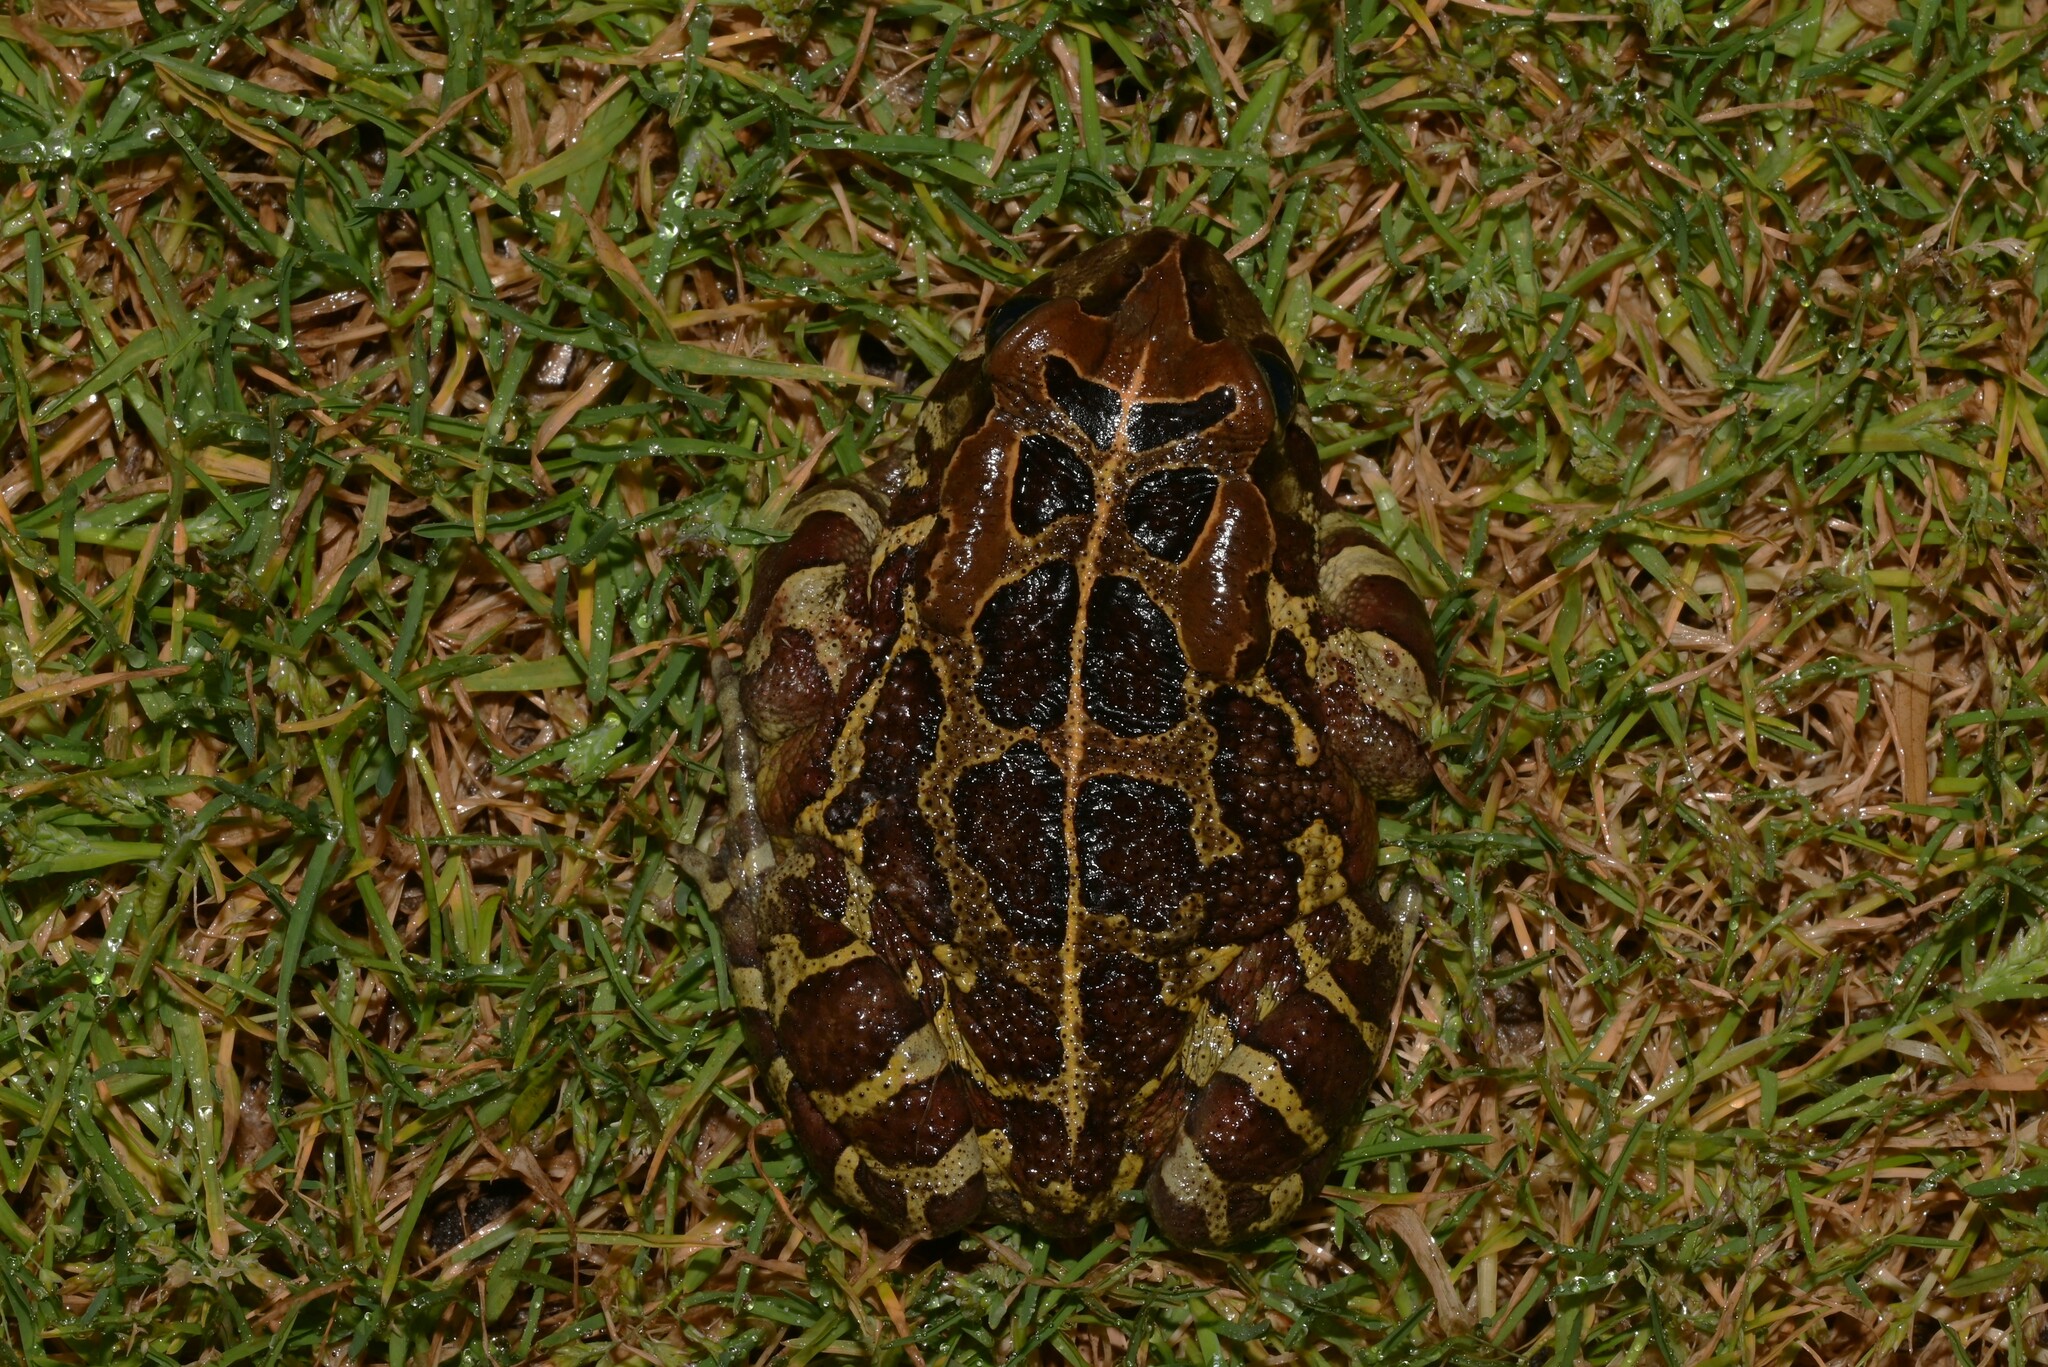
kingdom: Animalia
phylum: Chordata
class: Amphibia
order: Anura
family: Bufonidae
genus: Sclerophrys
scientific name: Sclerophrys pantherina
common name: Panther toad
